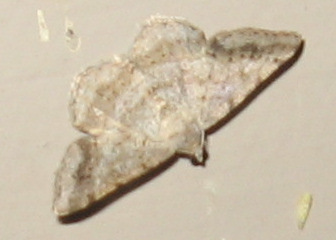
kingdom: Animalia
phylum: Arthropoda
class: Insecta
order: Lepidoptera
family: Geometridae
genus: Digrammia
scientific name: Digrammia ocellinata
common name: Faint-spotted angle
